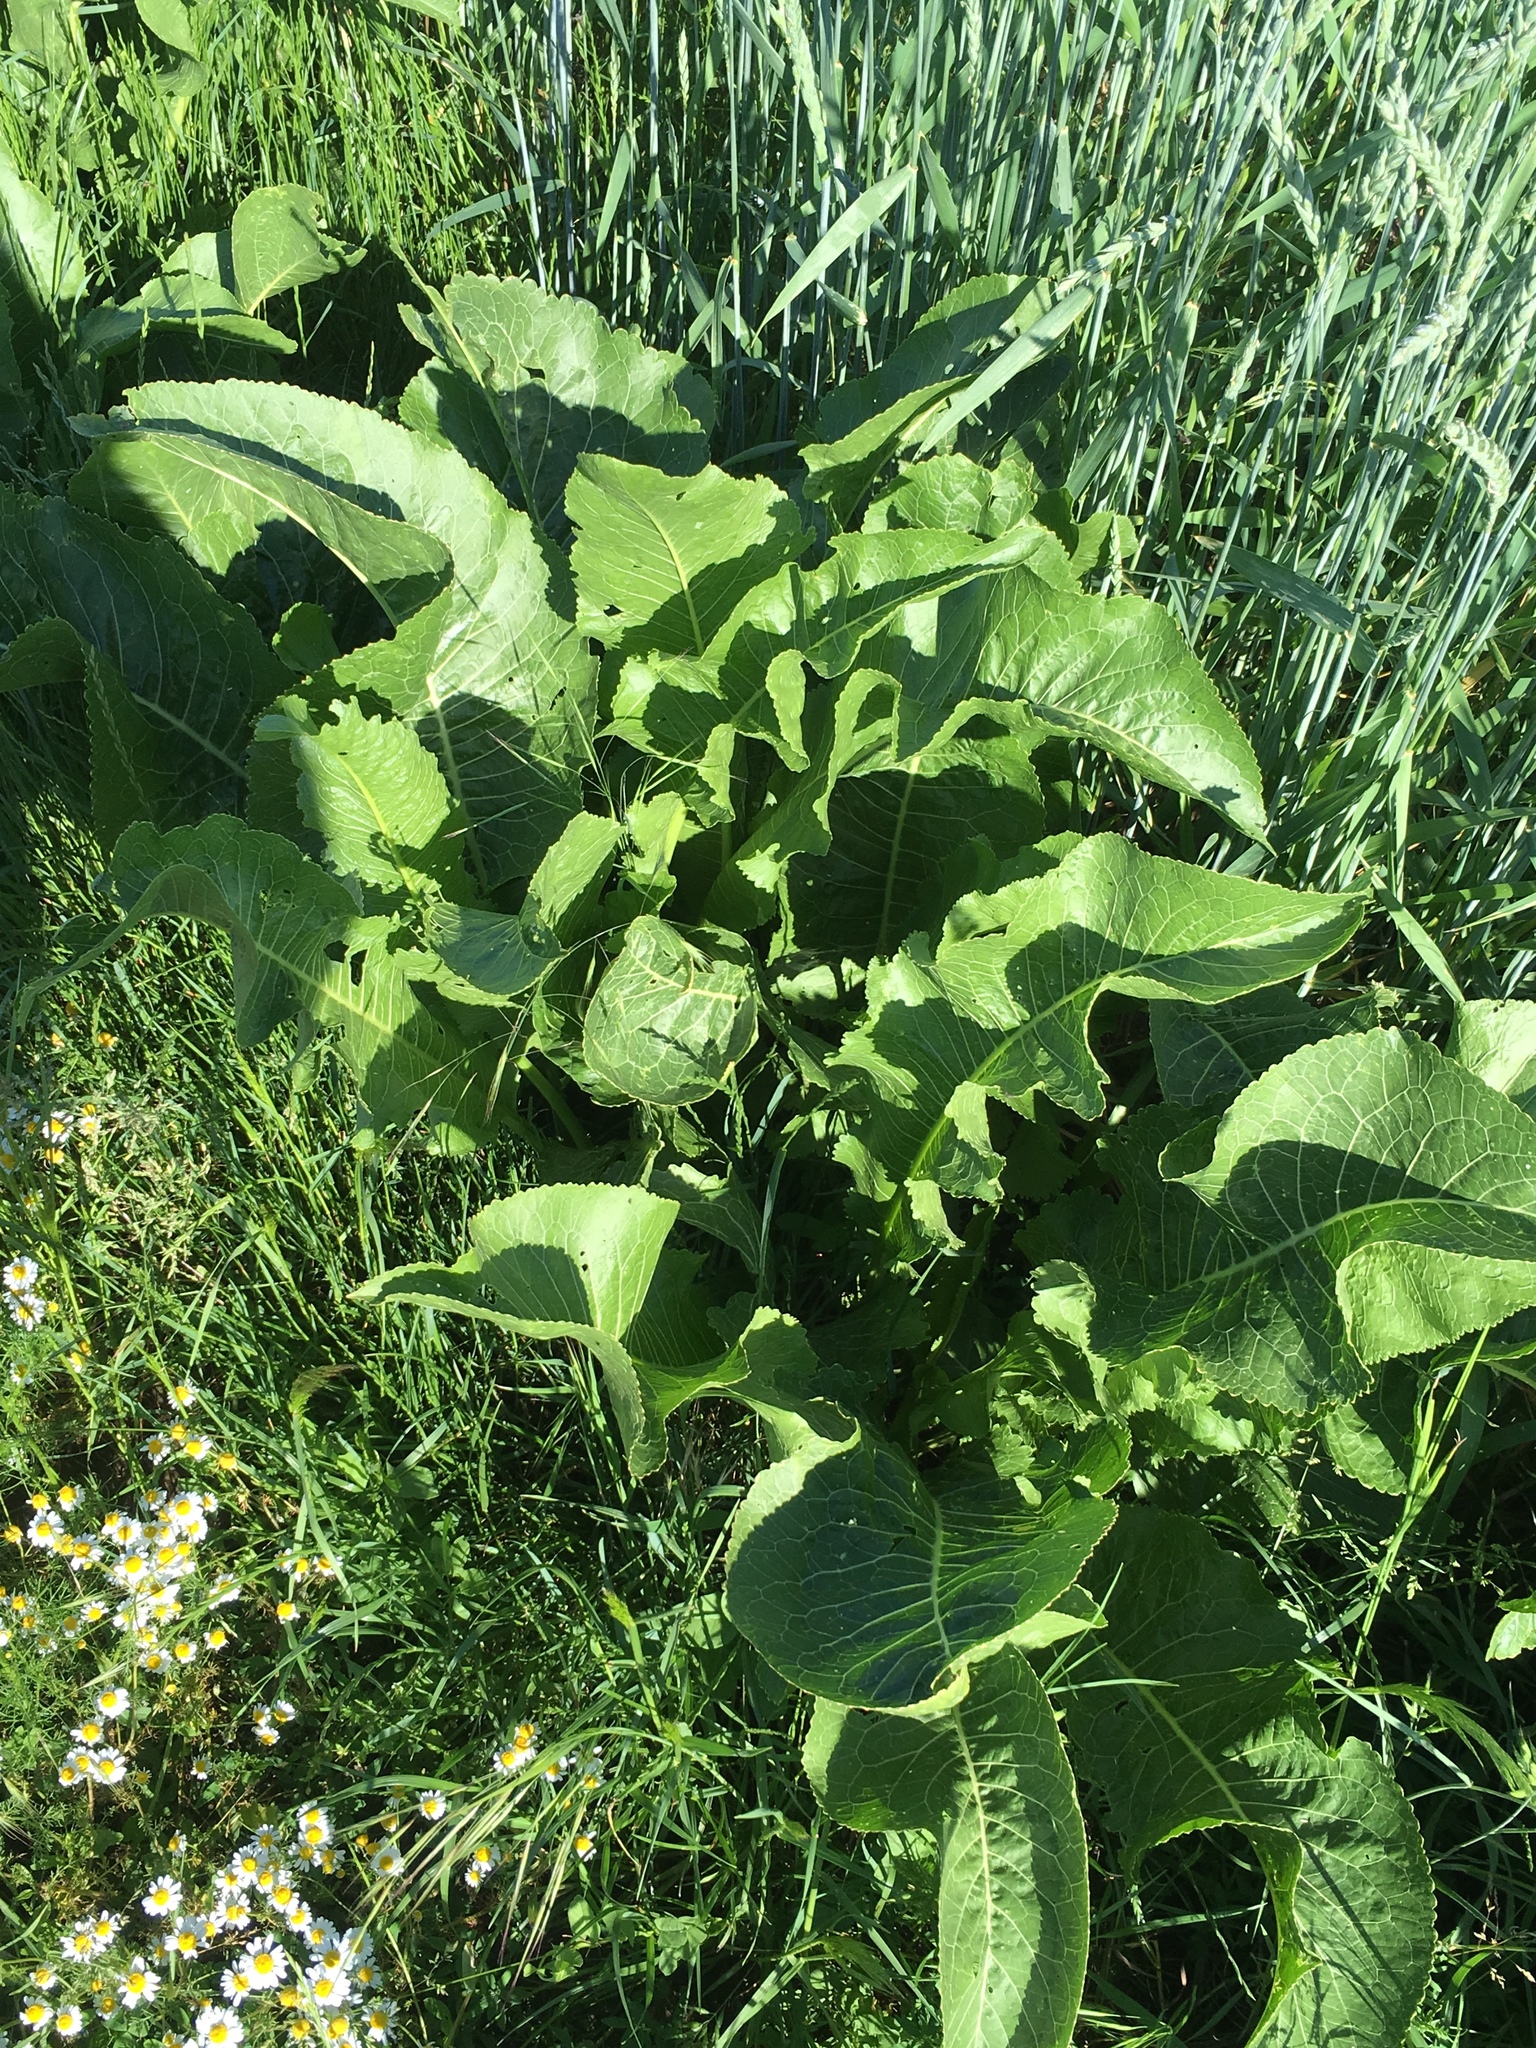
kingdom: Plantae
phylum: Tracheophyta
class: Magnoliopsida
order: Brassicales
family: Brassicaceae
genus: Armoracia
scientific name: Armoracia rusticana
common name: Horseradish
